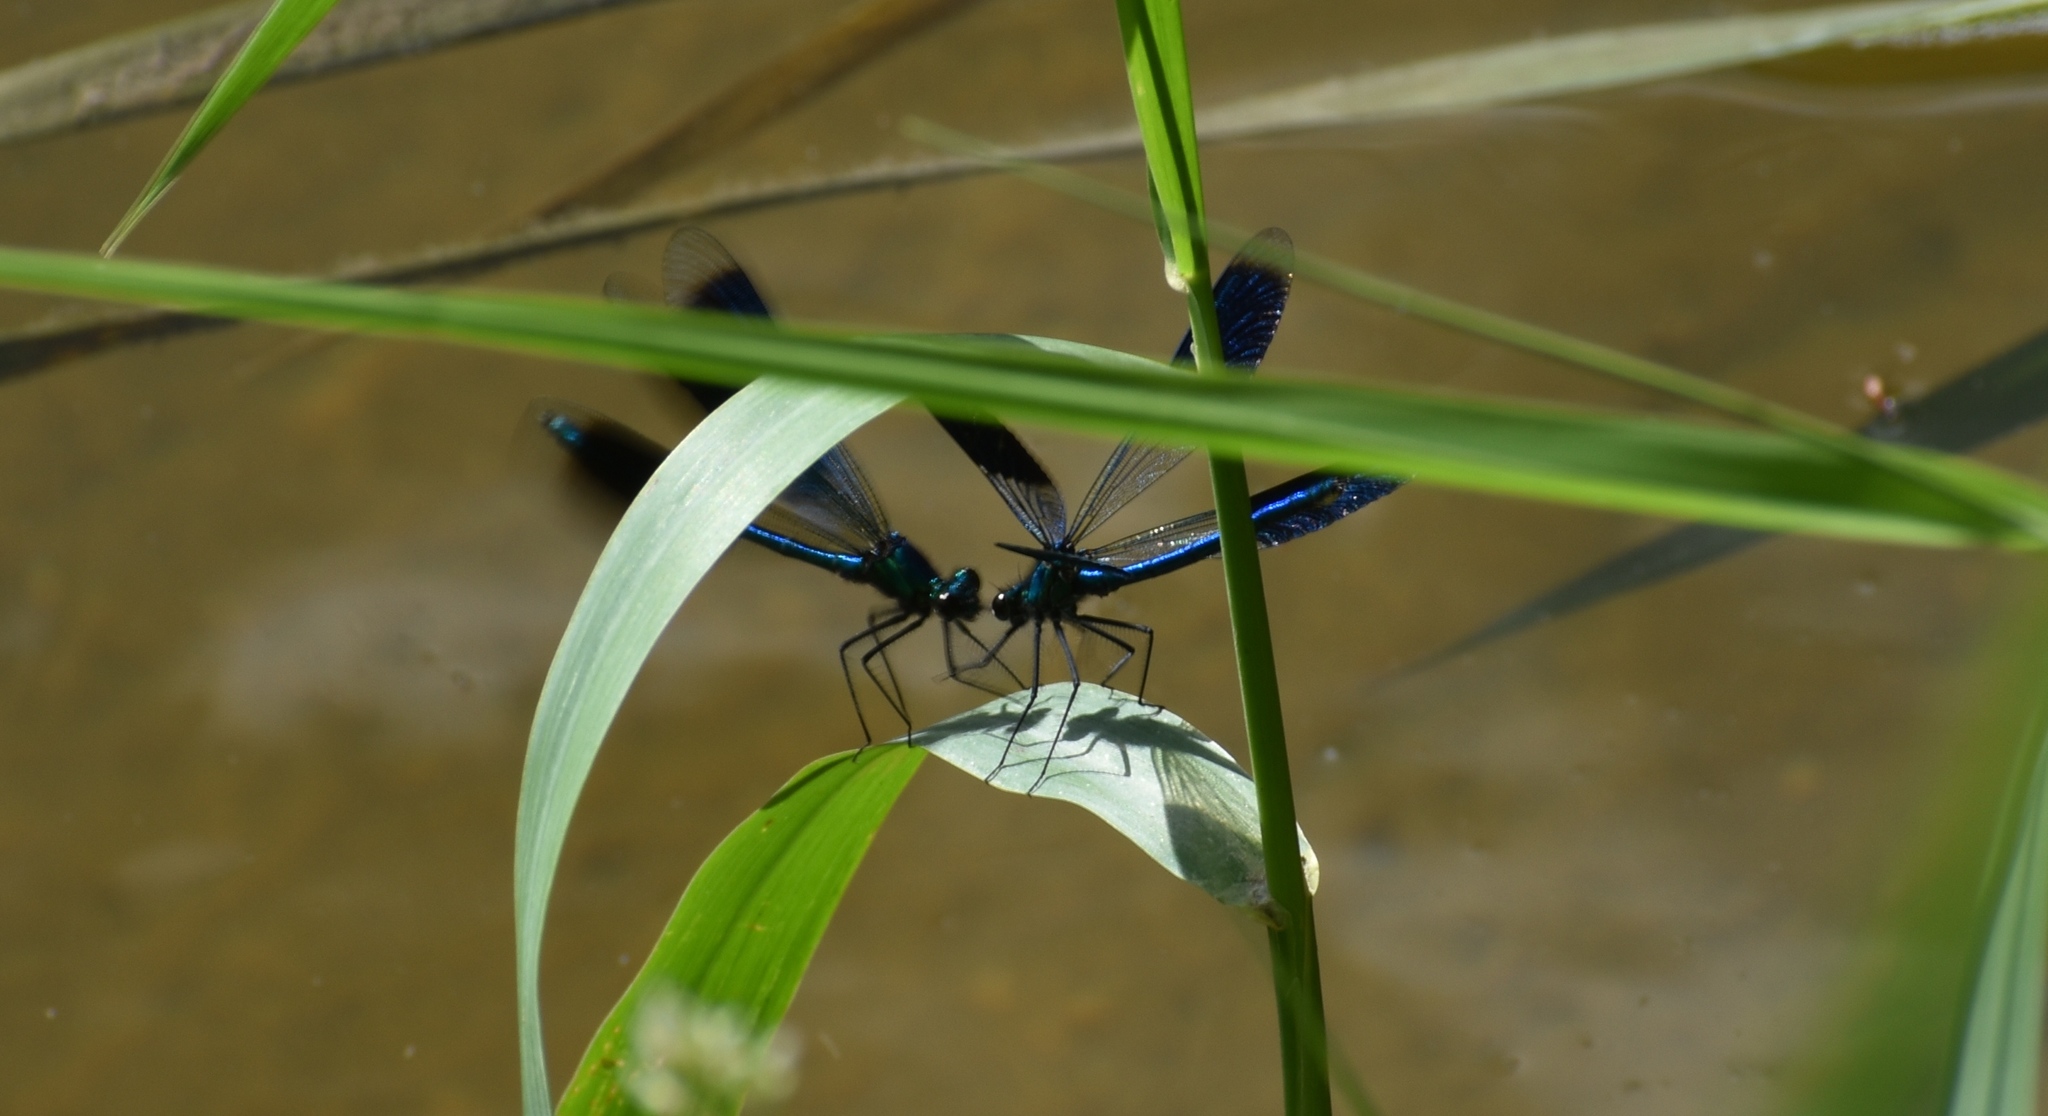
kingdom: Animalia
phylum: Arthropoda
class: Insecta
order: Odonata
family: Calopterygidae
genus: Calopteryx
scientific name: Calopteryx splendens
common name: Banded demoiselle
